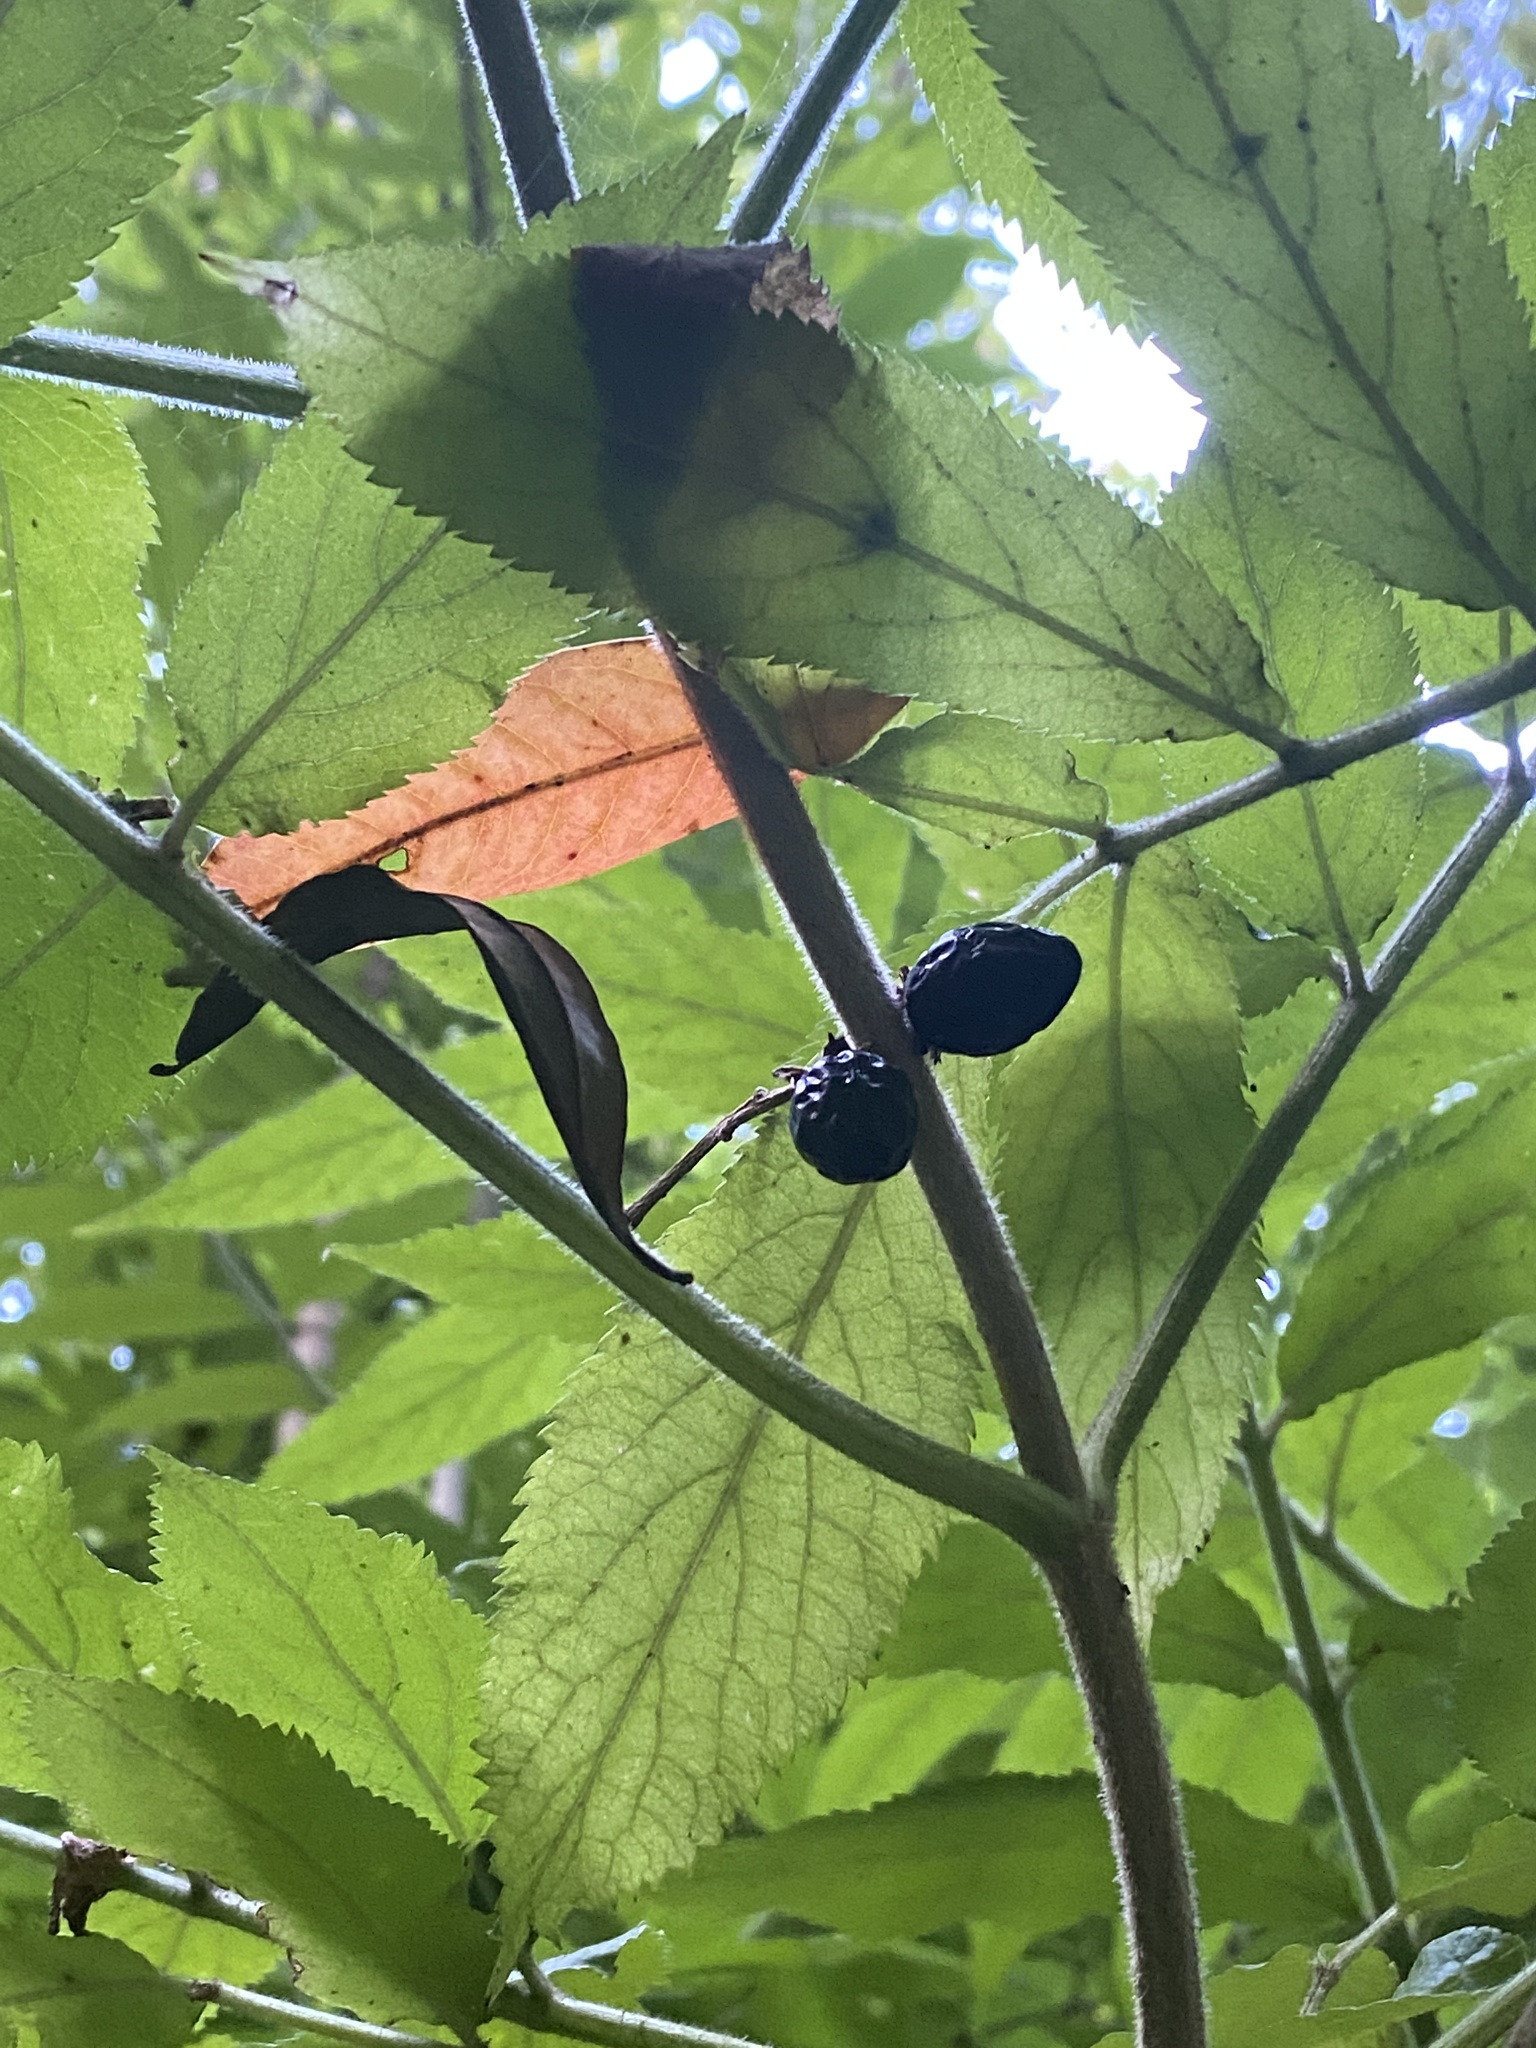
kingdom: Plantae
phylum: Tracheophyta
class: Magnoliopsida
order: Dipsacales
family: Viburnaceae
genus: Sambucus
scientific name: Sambucus palmensis
